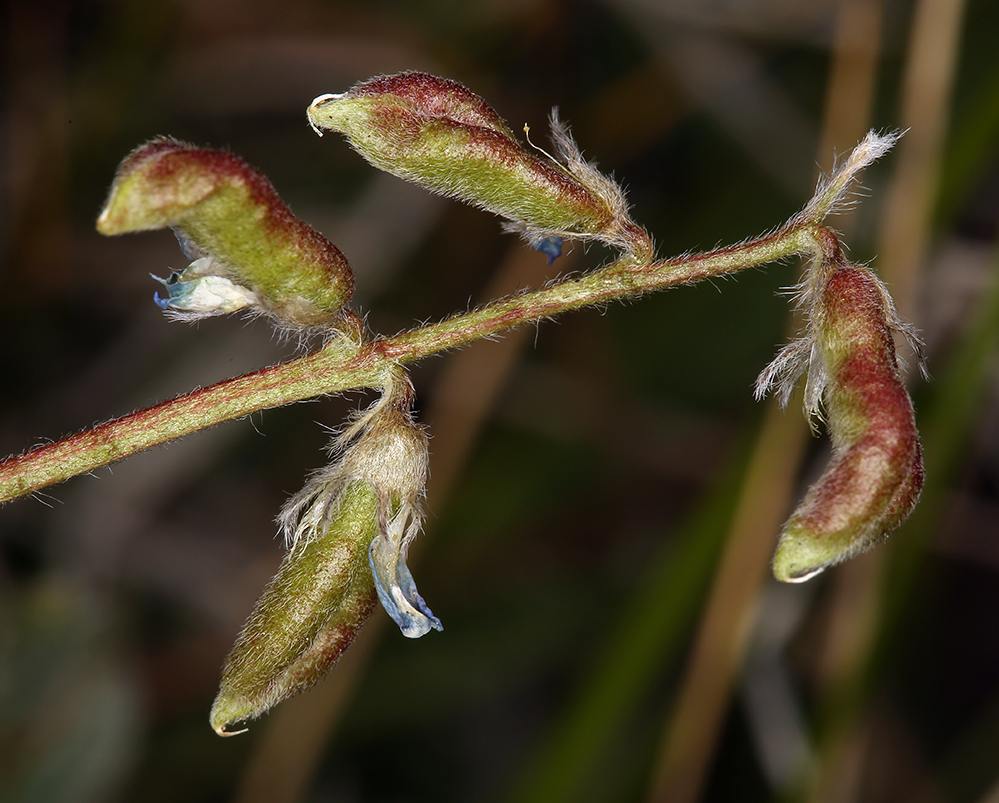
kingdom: Plantae
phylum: Tracheophyta
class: Magnoliopsida
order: Fabales
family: Fabaceae
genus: Oxytropis
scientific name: Oxytropis deflexa
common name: Stemmed oxytrope
